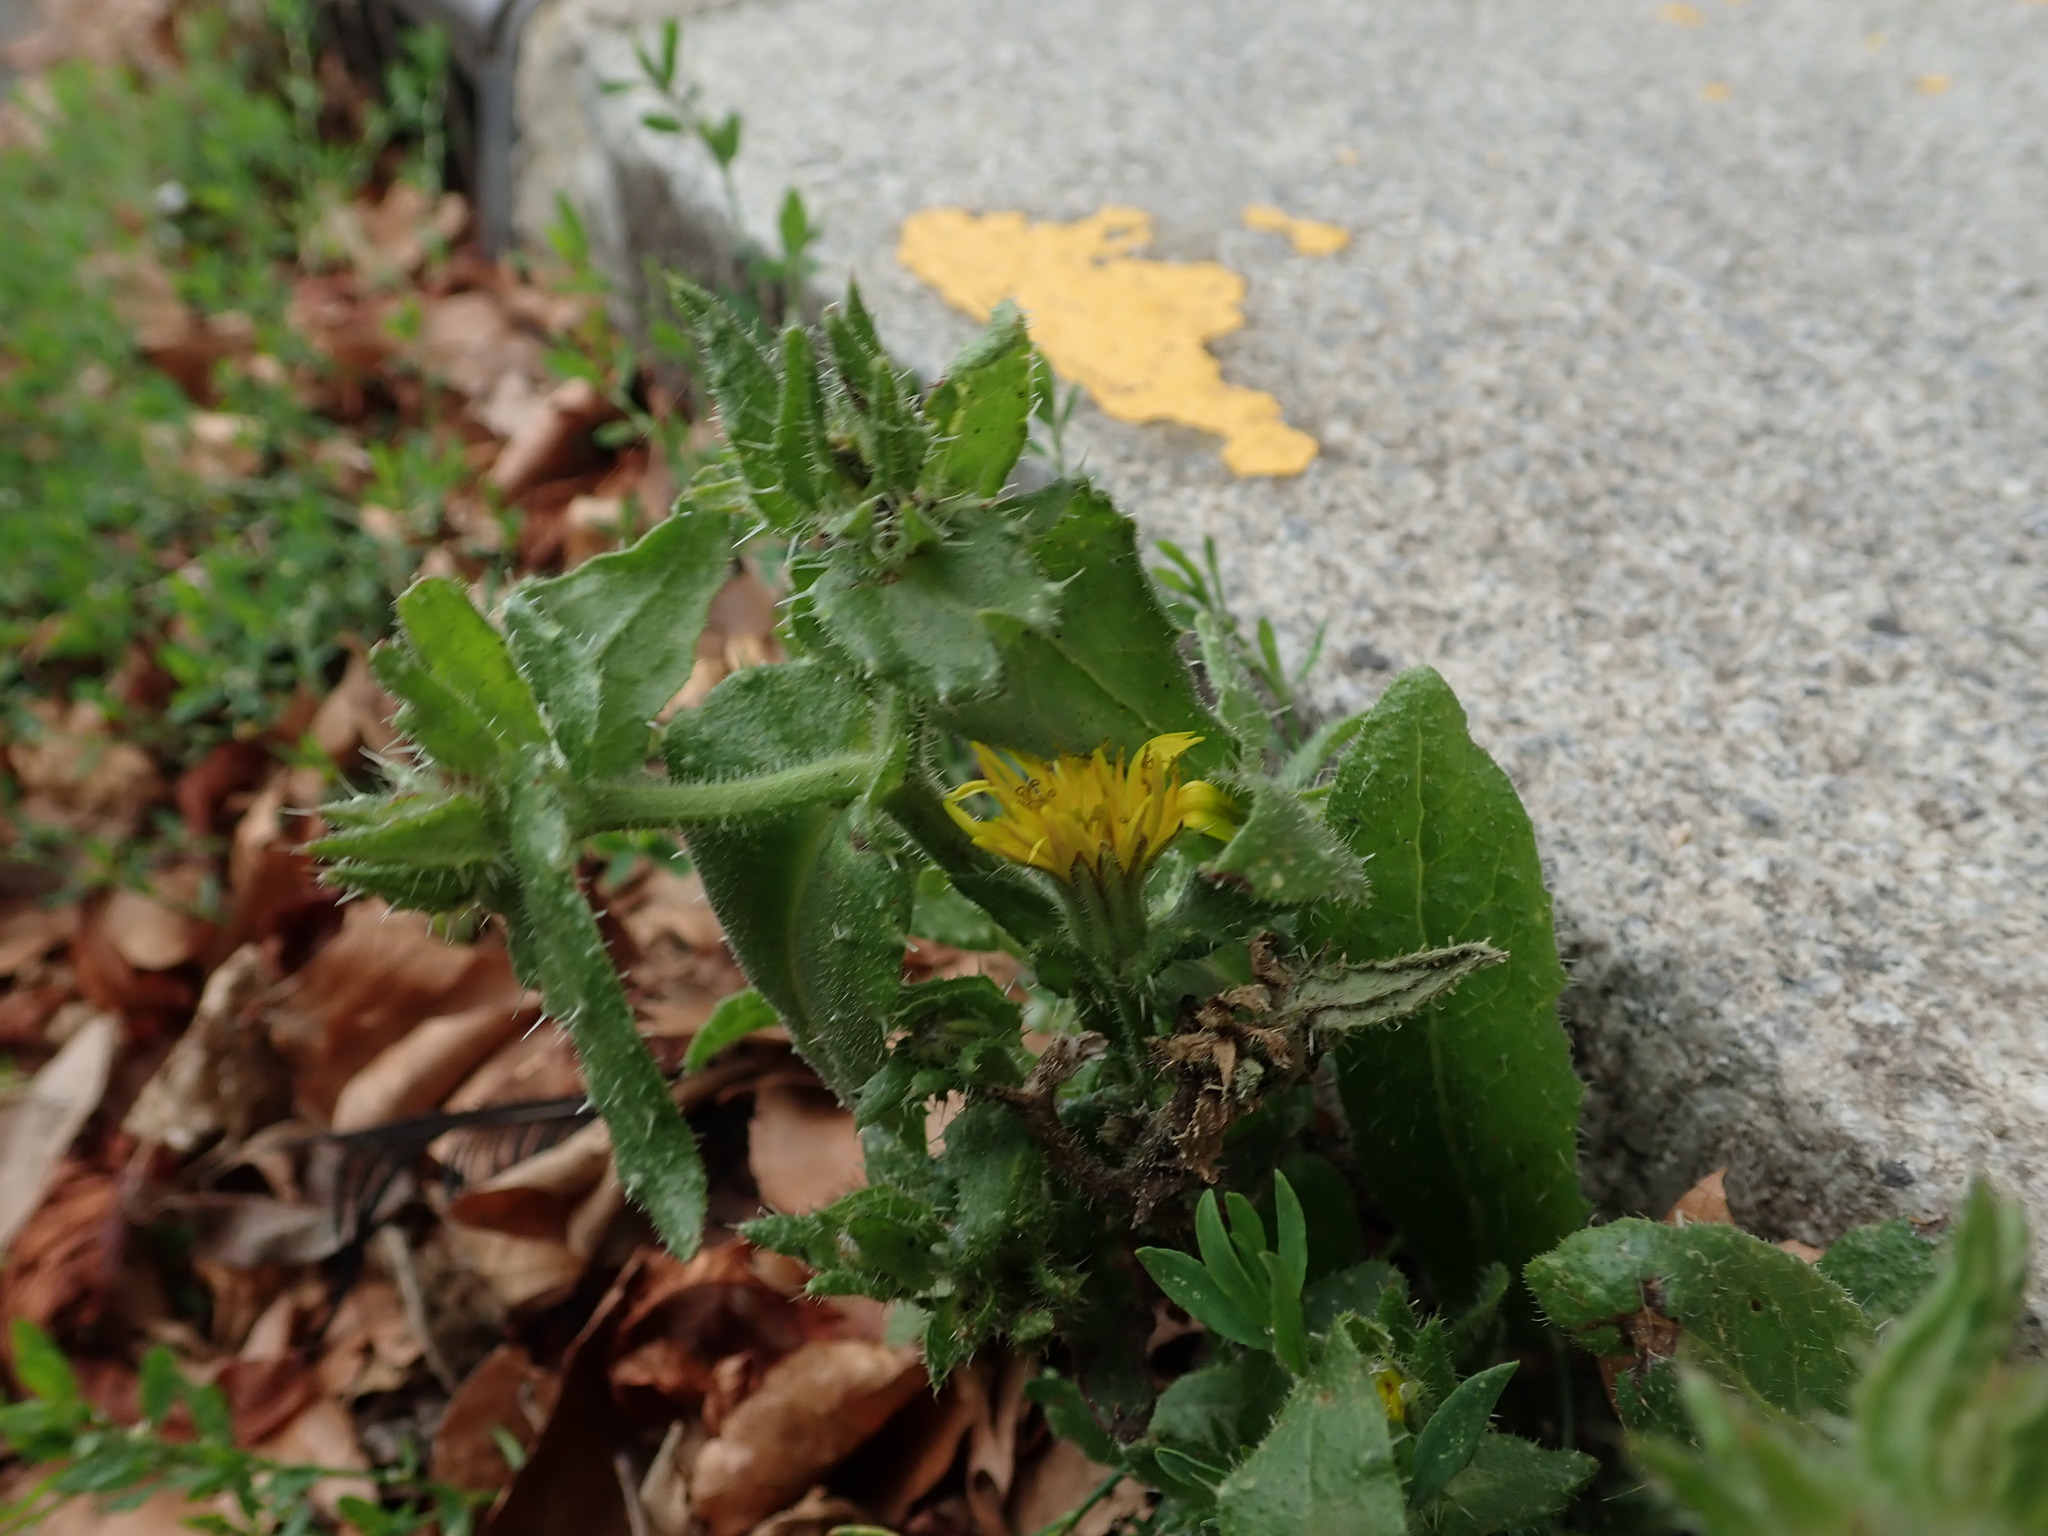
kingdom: Plantae
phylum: Tracheophyta
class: Magnoliopsida
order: Asterales
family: Asteraceae
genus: Helminthotheca
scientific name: Helminthotheca echioides
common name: Ox-tongue
